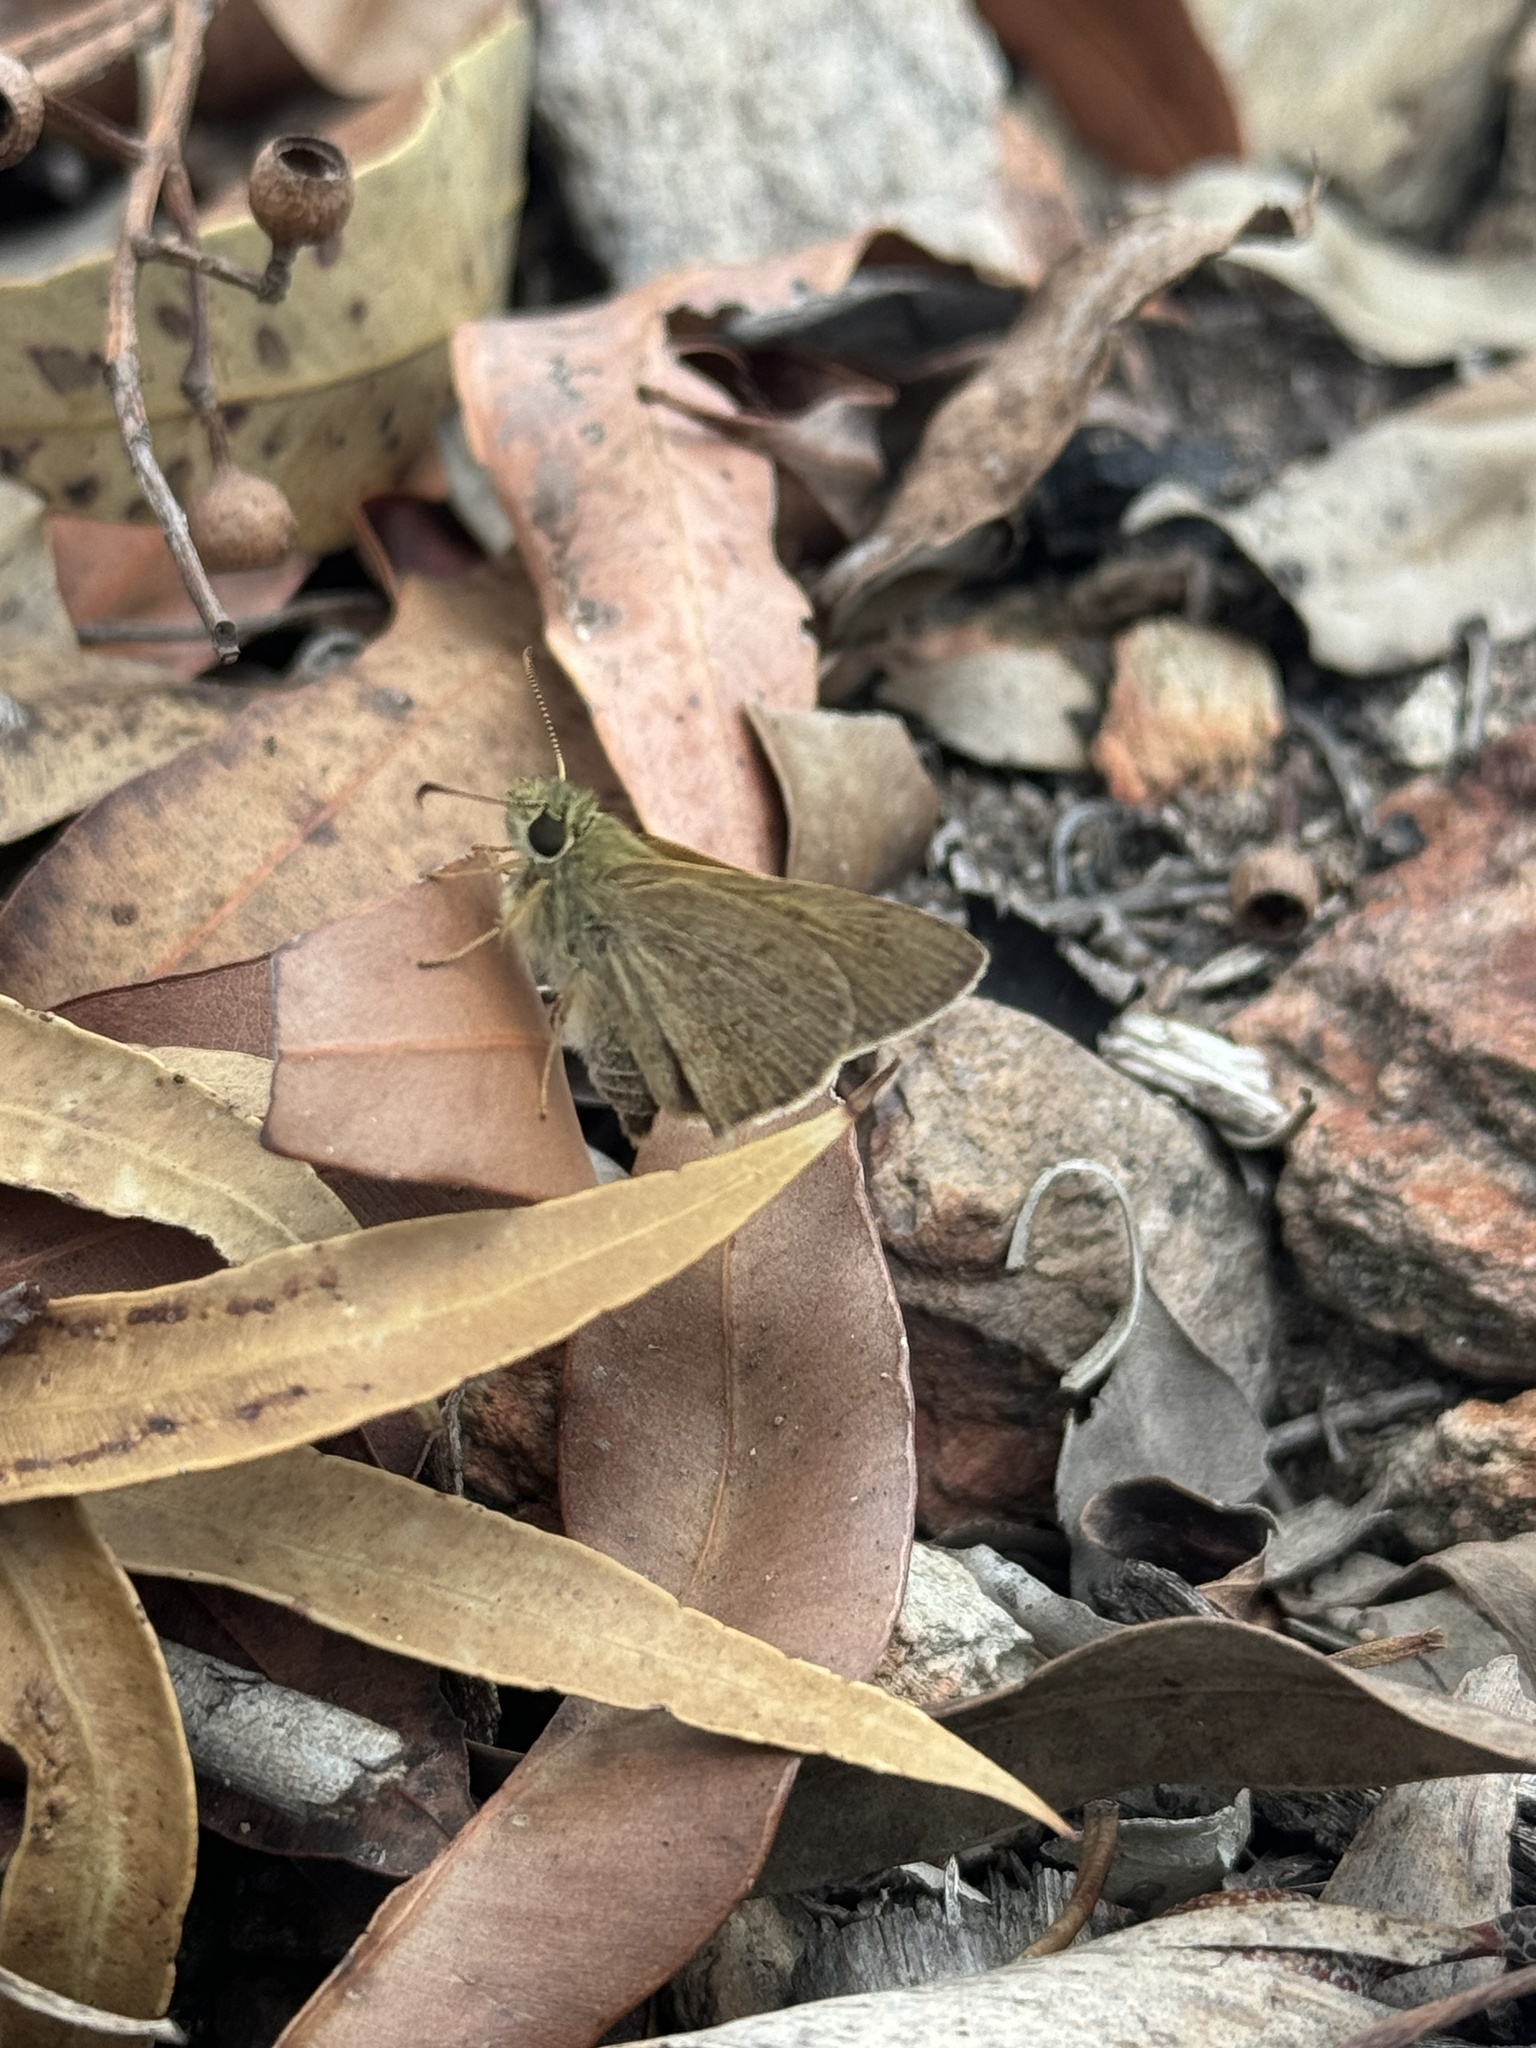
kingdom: Animalia
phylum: Arthropoda
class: Insecta
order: Lepidoptera
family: Hesperiidae
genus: Toxidia
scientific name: Toxidia
